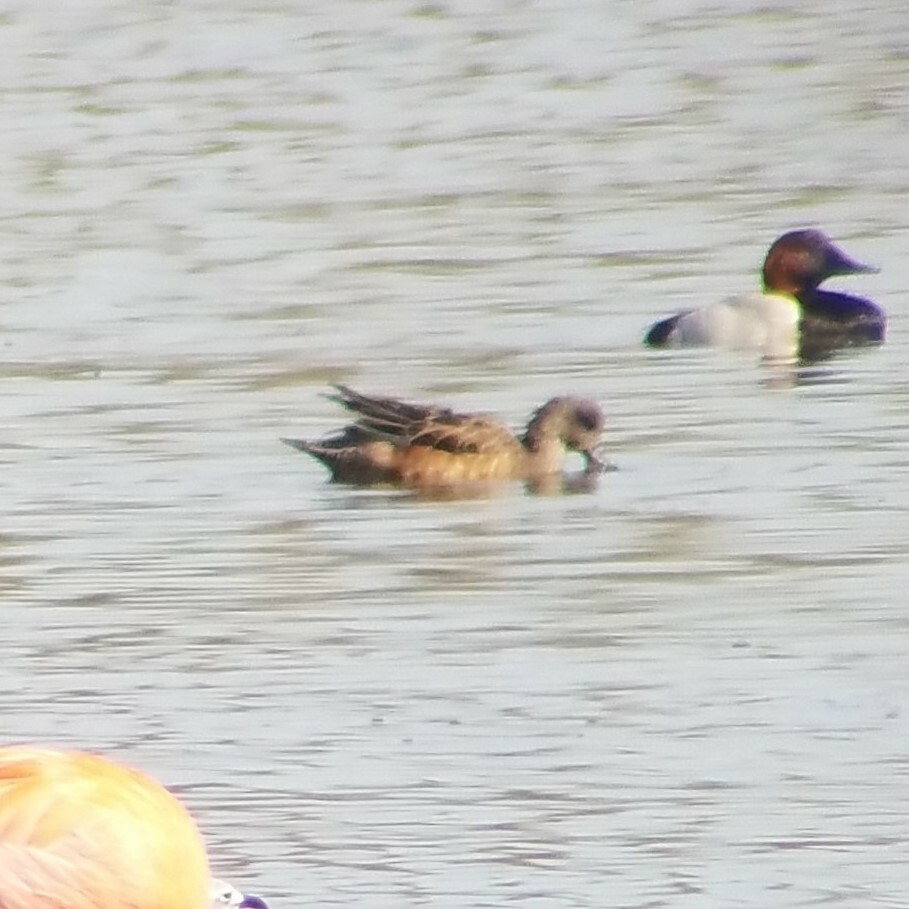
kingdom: Animalia
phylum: Chordata
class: Aves
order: Anseriformes
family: Anatidae
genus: Mareca
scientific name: Mareca americana
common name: American wigeon
